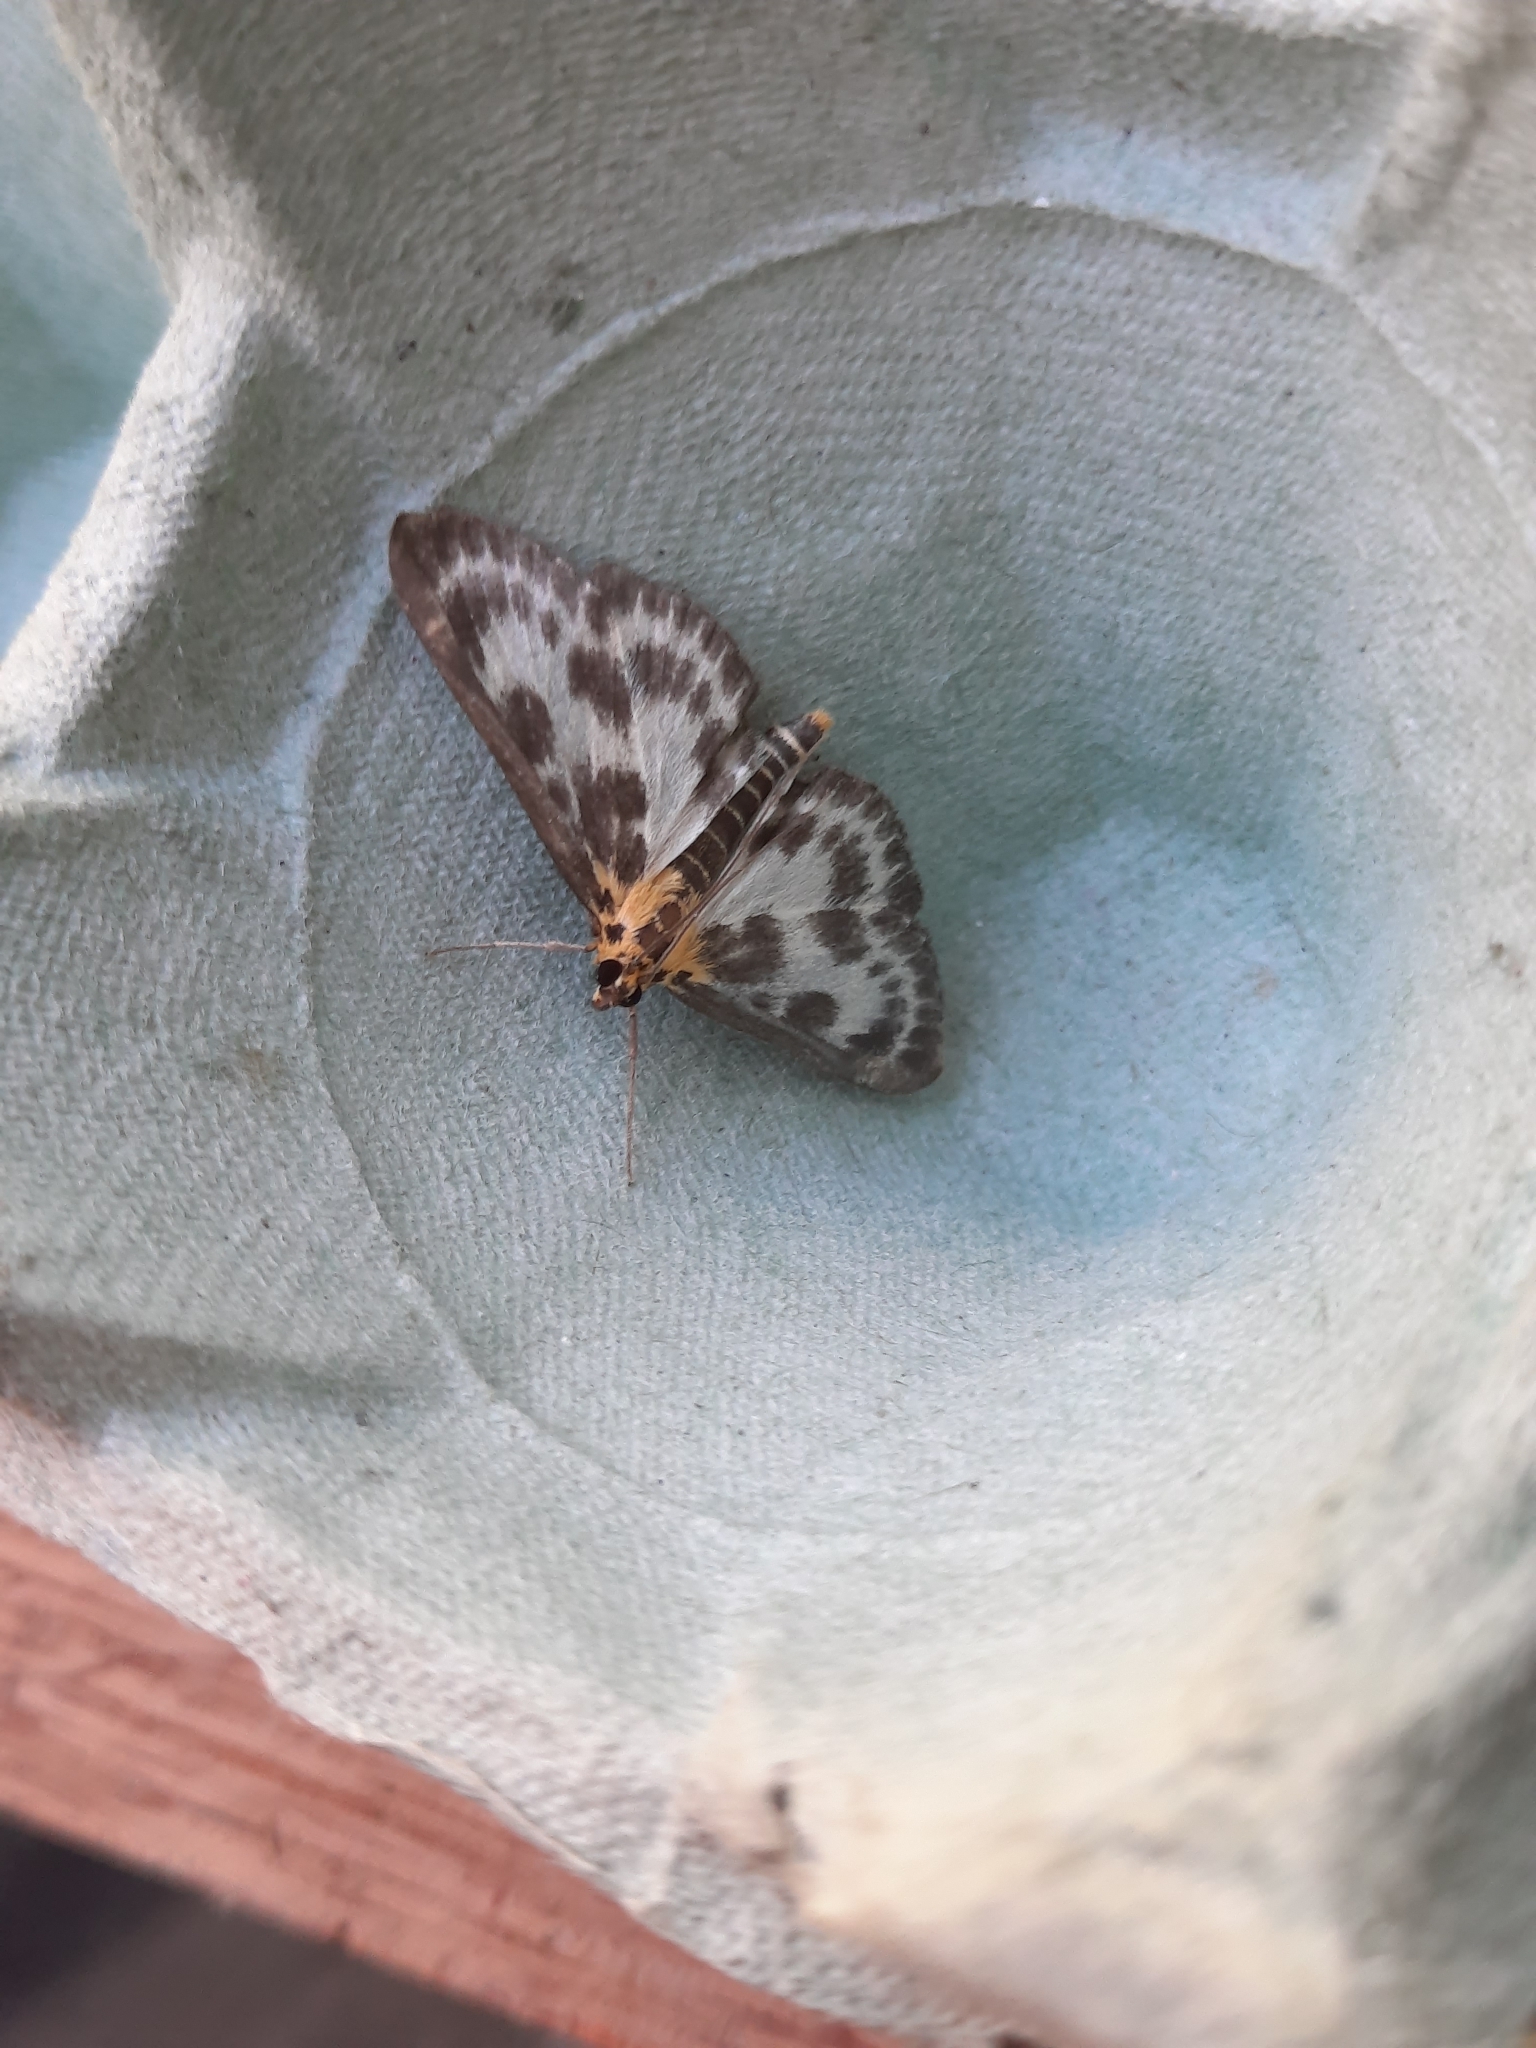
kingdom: Animalia
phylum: Arthropoda
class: Insecta
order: Lepidoptera
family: Crambidae
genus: Anania
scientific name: Anania hortulata
